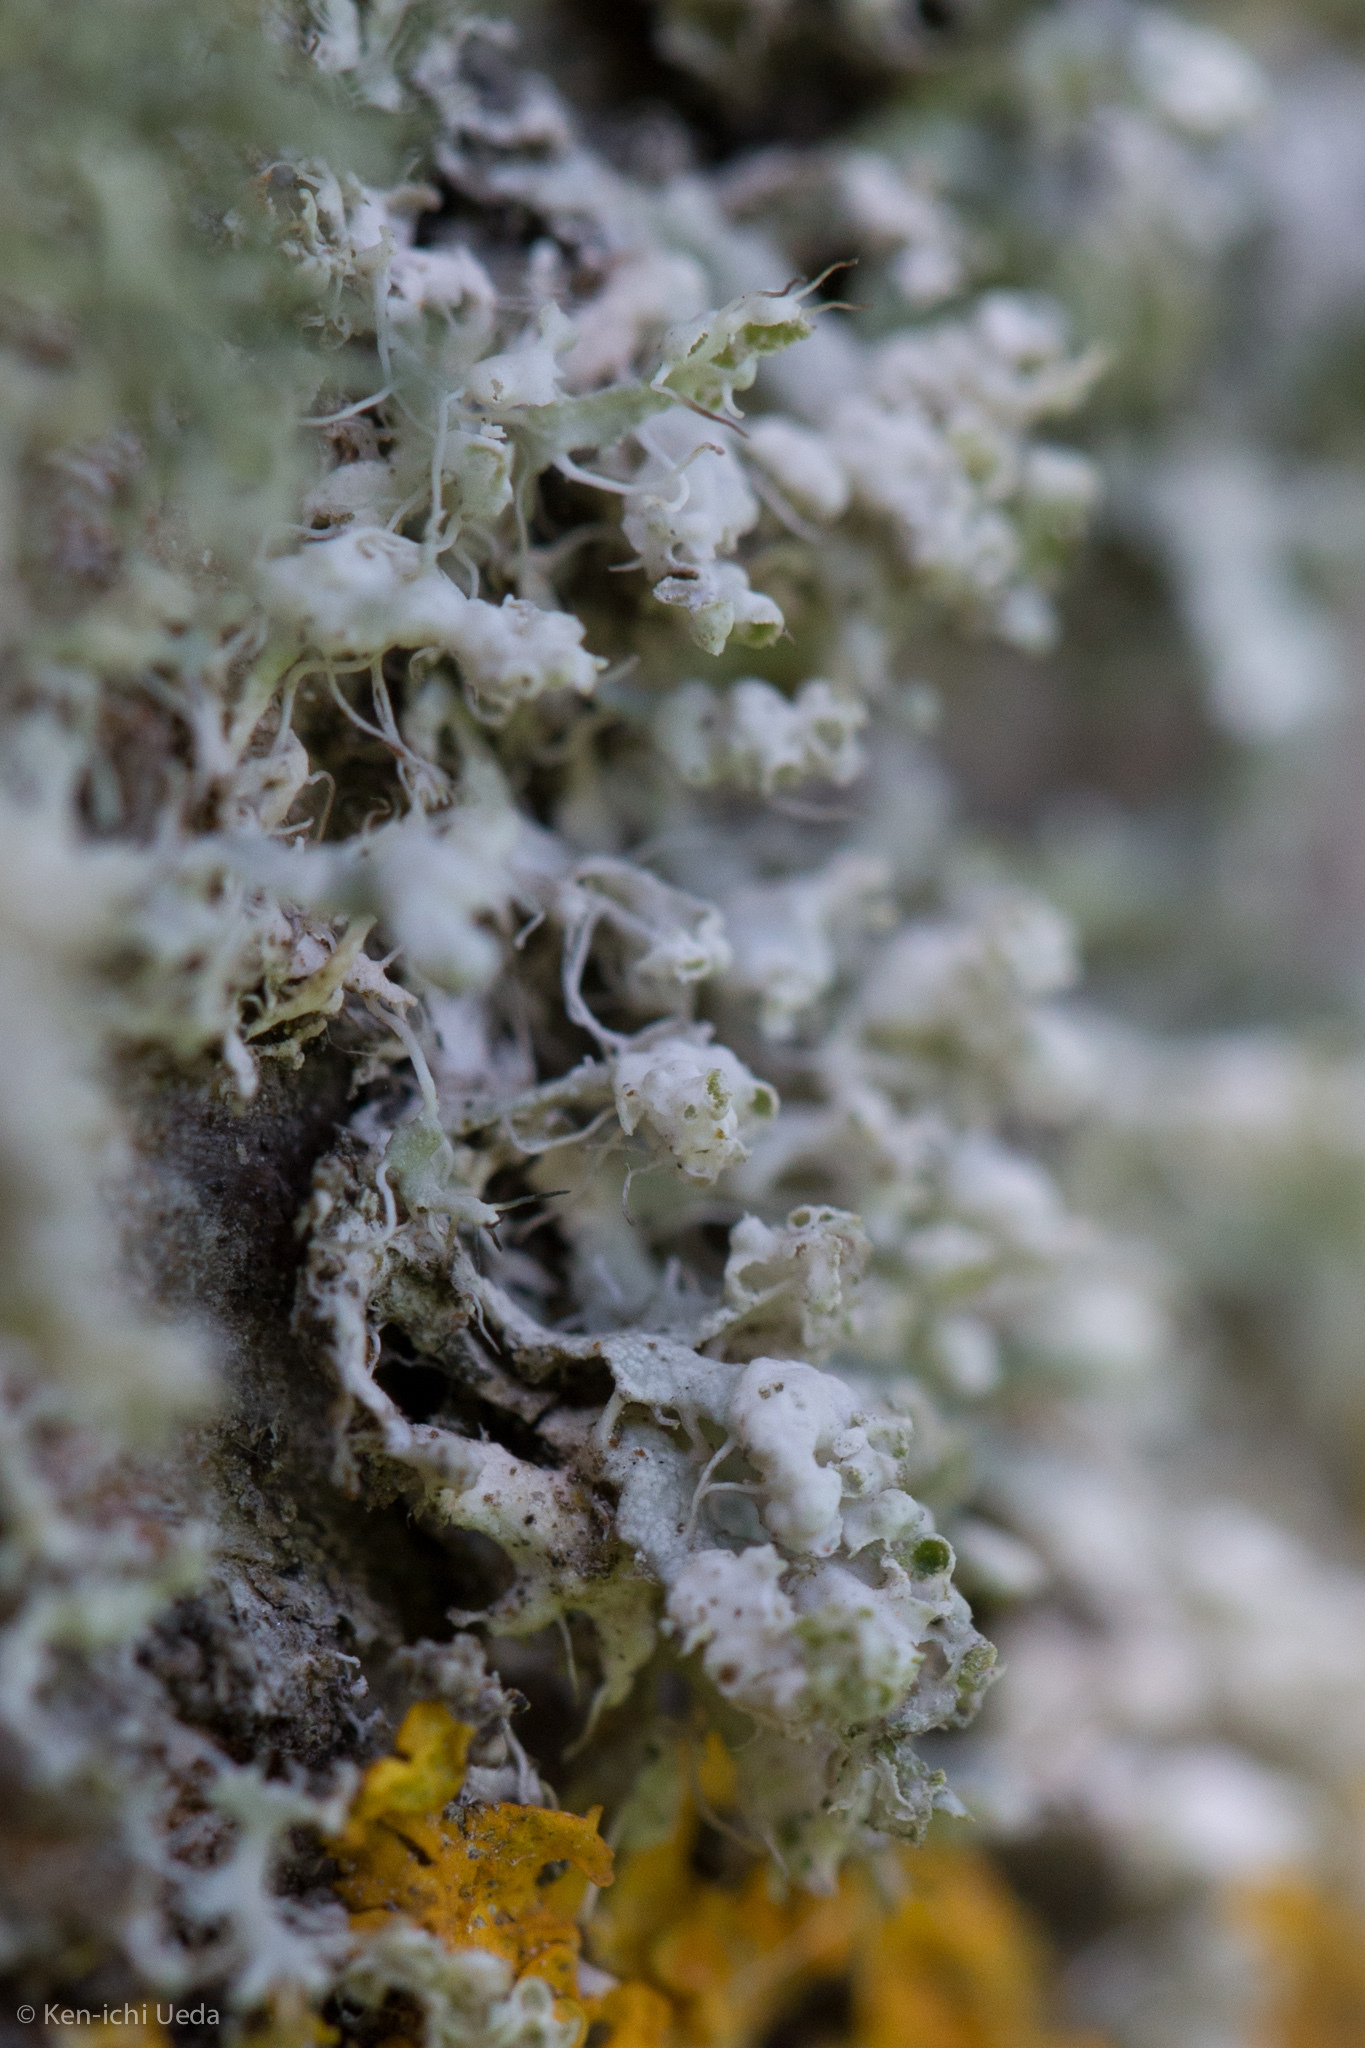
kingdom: Fungi
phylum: Ascomycota
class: Lecanoromycetes
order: Caliciales
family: Physciaceae
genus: Physcia
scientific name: Physcia adscendens
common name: Hooded rosette lichen
